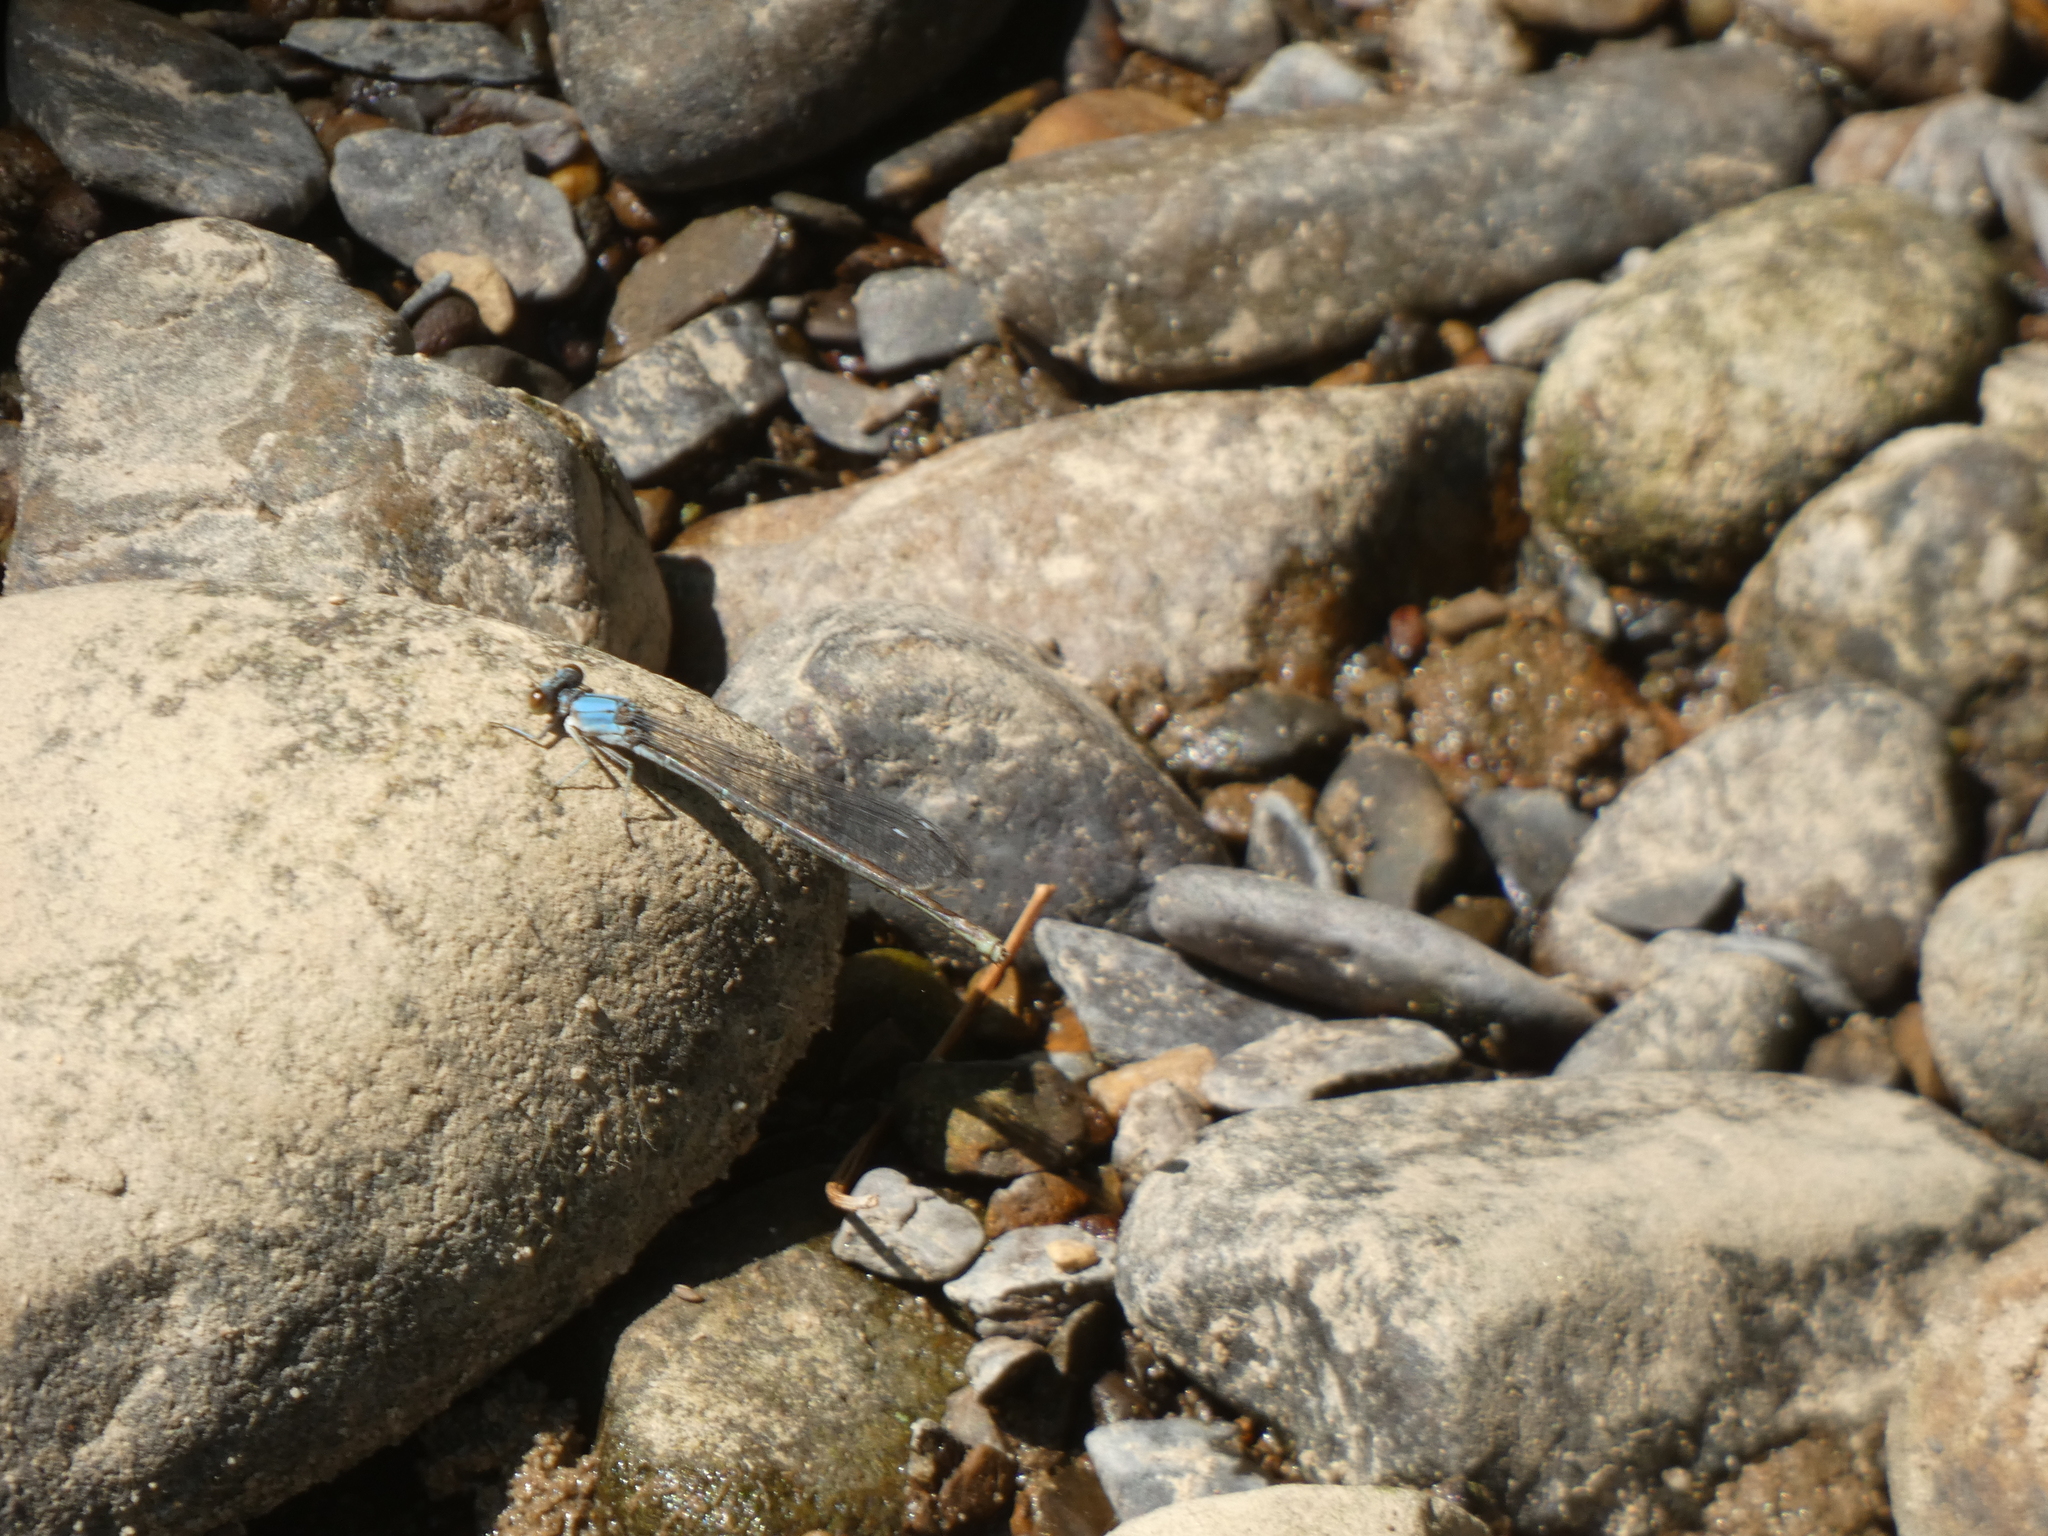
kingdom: Animalia
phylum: Arthropoda
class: Insecta
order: Odonata
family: Coenagrionidae
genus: Argia
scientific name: Argia apicalis
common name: Blue-fronted dancer
